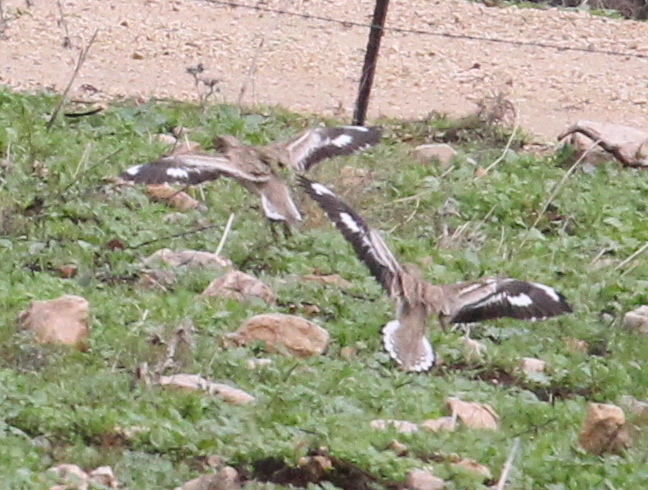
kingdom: Animalia
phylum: Chordata
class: Aves
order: Charadriiformes
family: Burhinidae
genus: Burhinus
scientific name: Burhinus oedicnemus
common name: Eurasian stone-curlew
